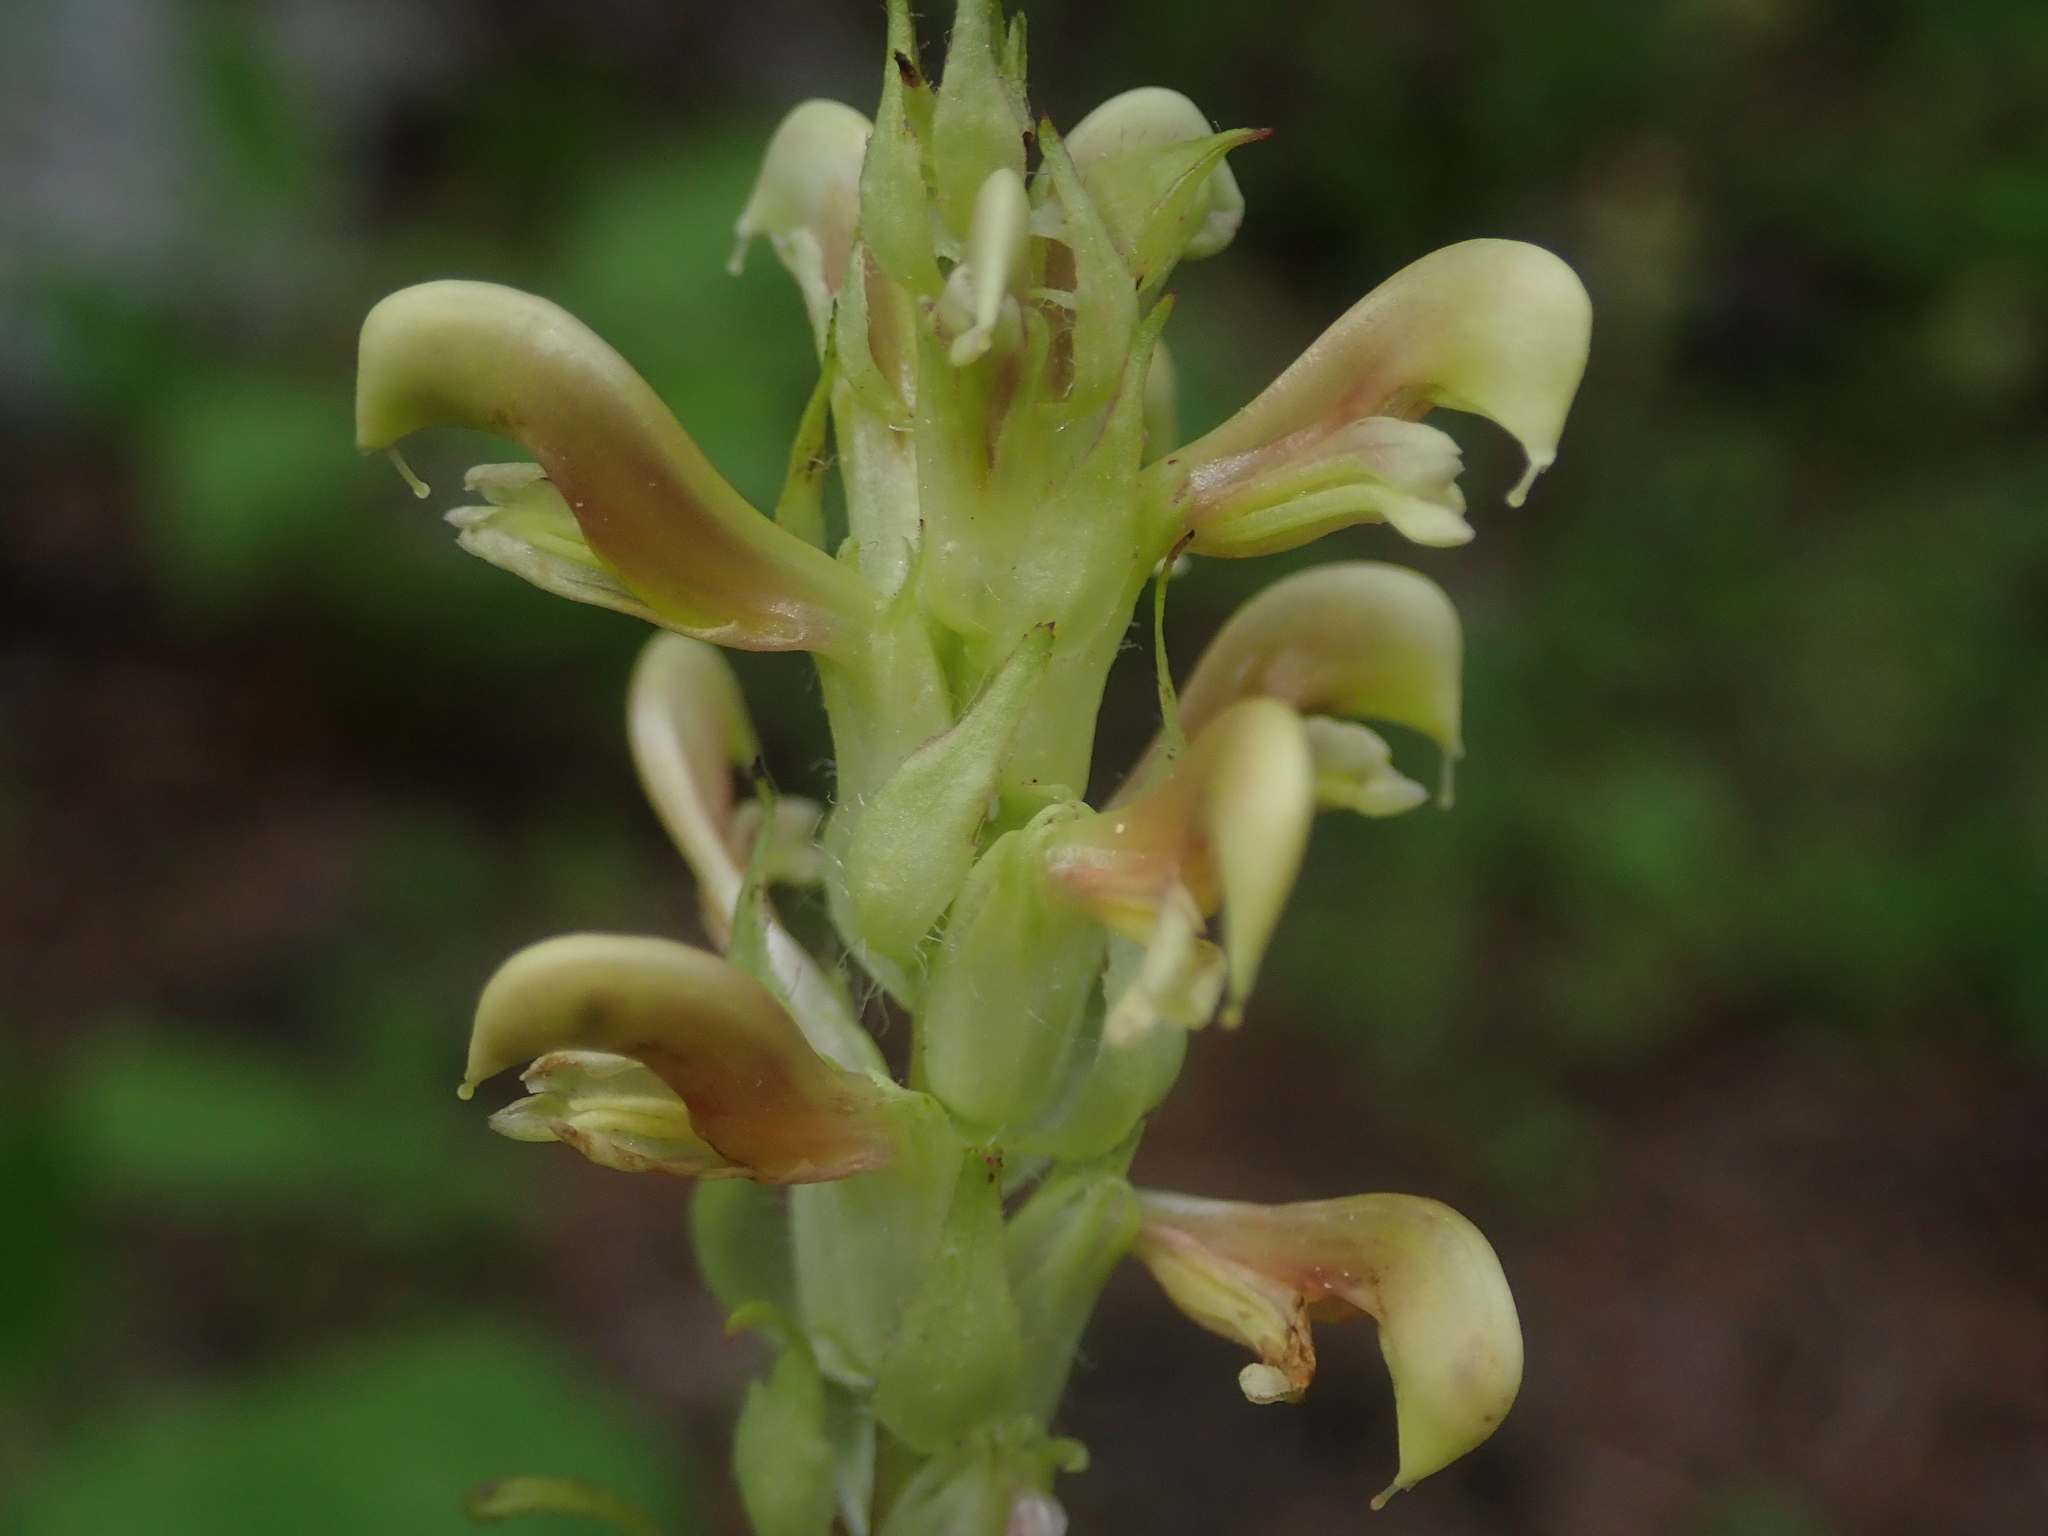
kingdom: Plantae
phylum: Tracheophyta
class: Magnoliopsida
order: Lamiales
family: Orobanchaceae
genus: Pedicularis
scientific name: Pedicularis bracteosa
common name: Bracted lousewort
